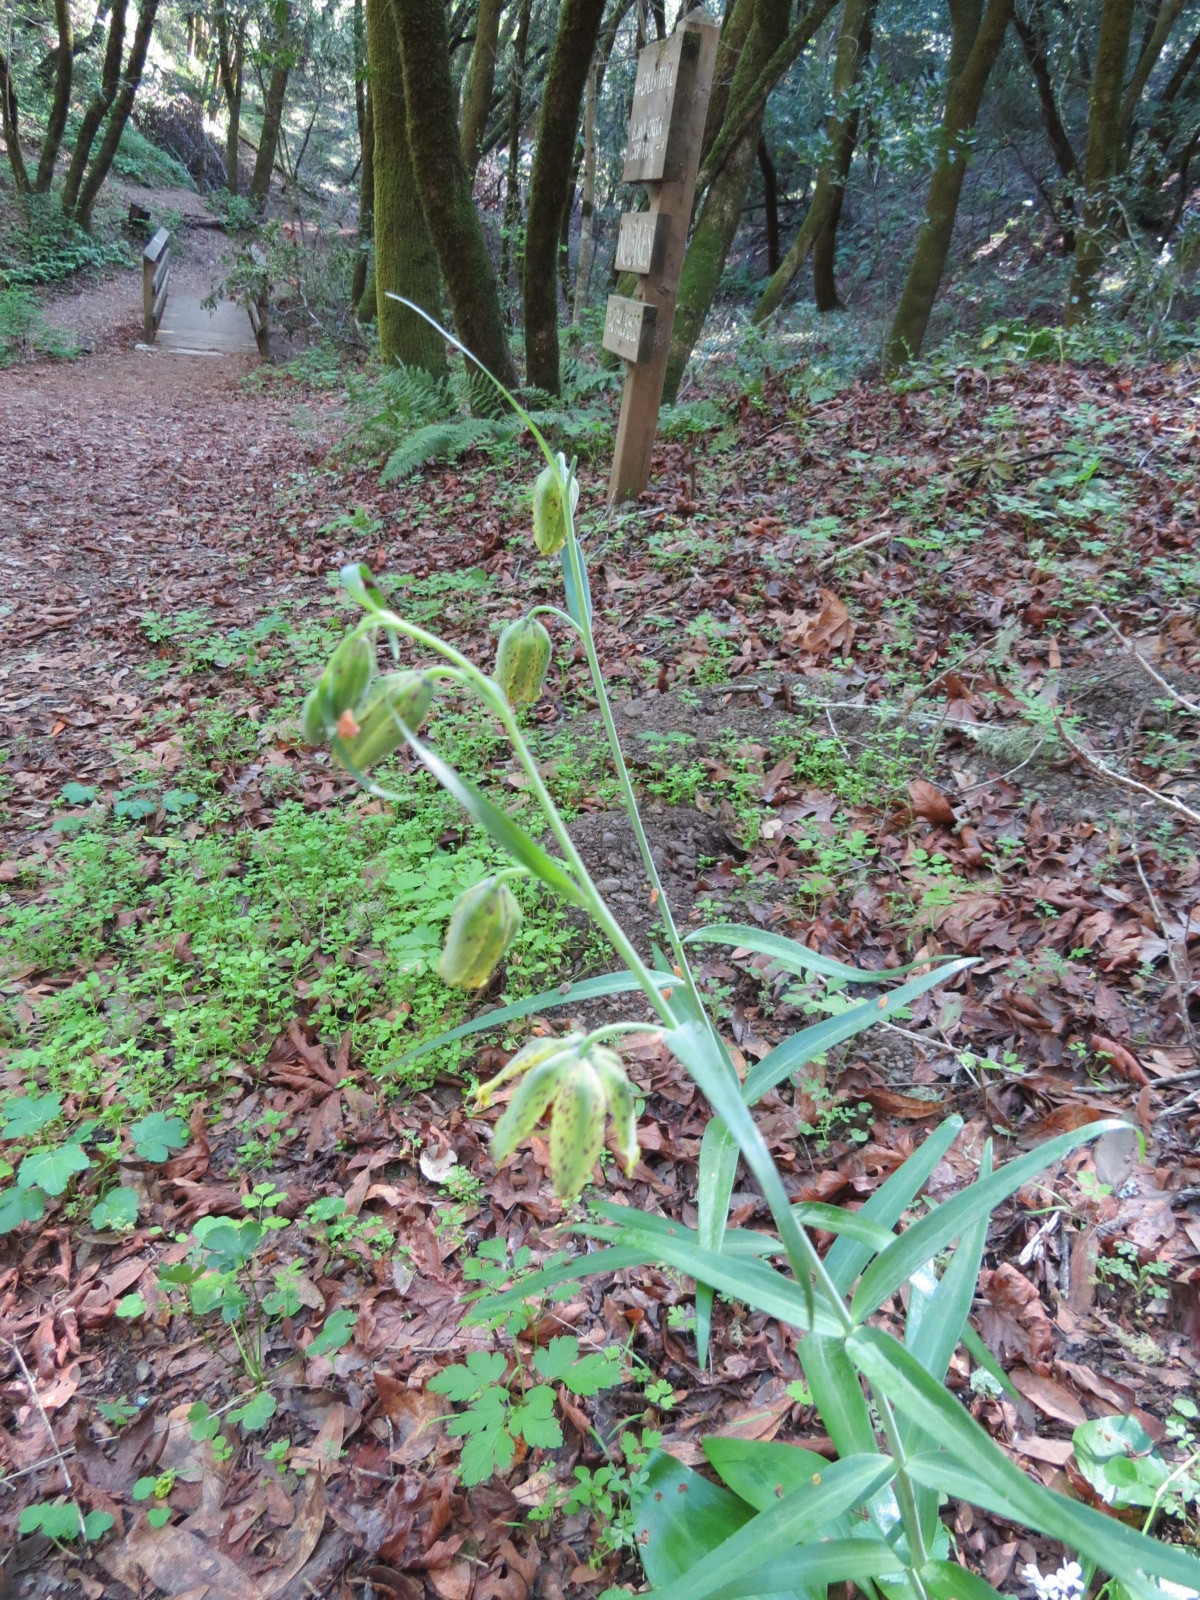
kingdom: Plantae
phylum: Tracheophyta
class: Liliopsida
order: Liliales
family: Liliaceae
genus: Fritillaria
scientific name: Fritillaria affinis
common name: Ojai fritillary
